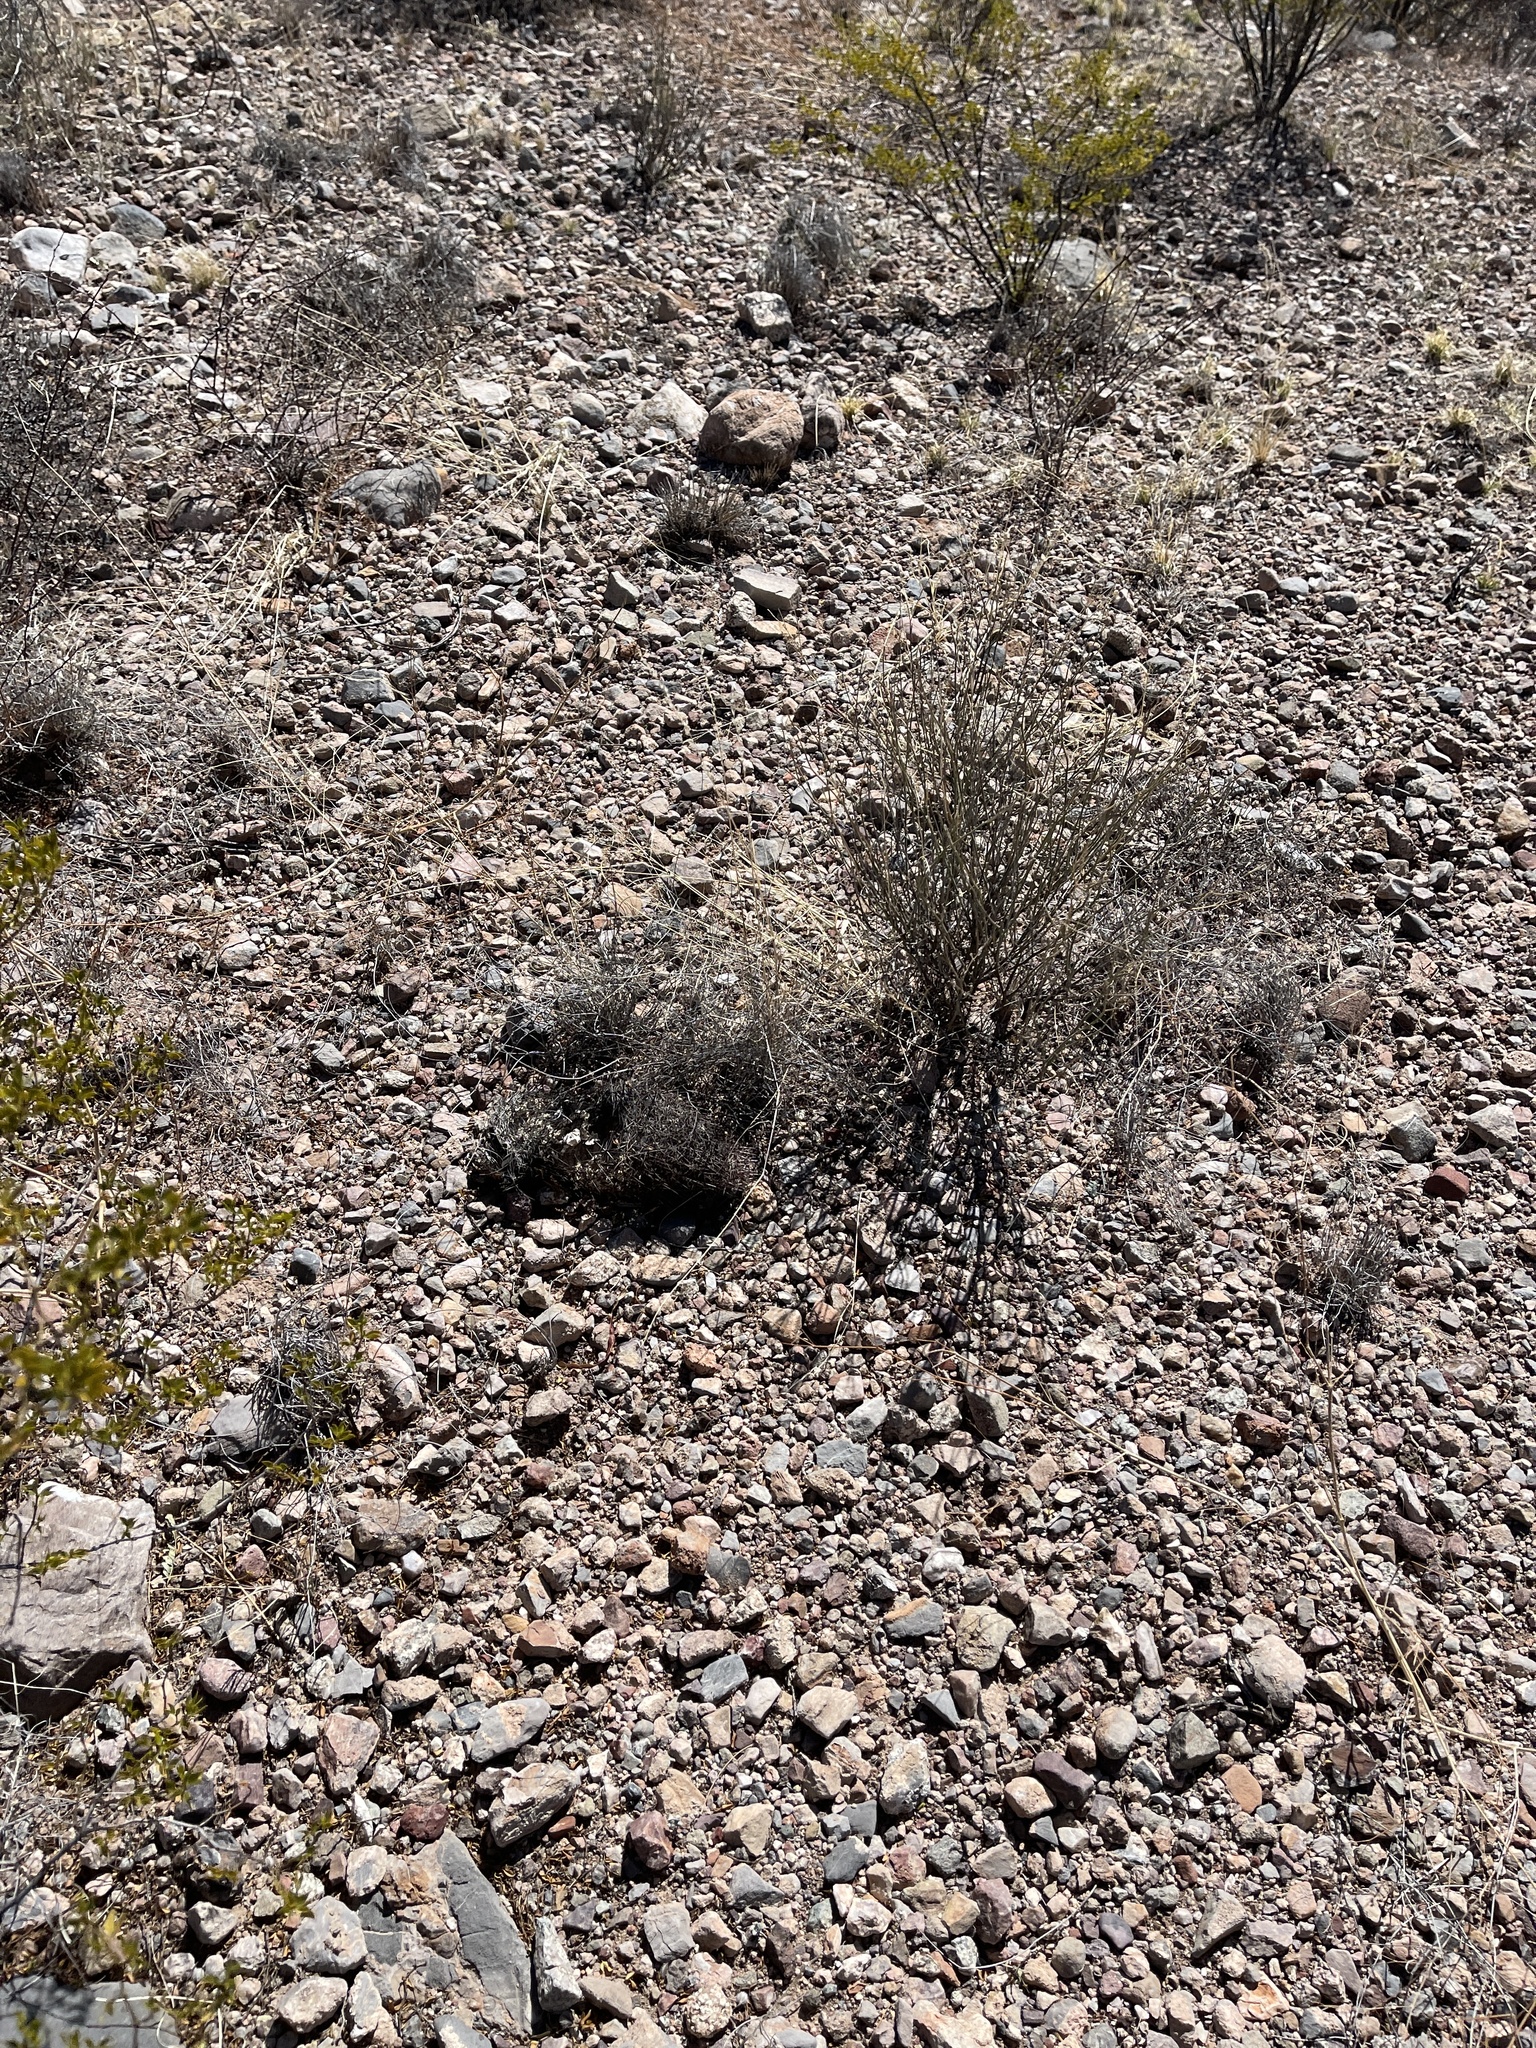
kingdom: Plantae
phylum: Tracheophyta
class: Magnoliopsida
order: Caryophyllales
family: Cactaceae
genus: Sclerocactus
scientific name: Sclerocactus johnsonii
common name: Eight-spine fishhook cactus
